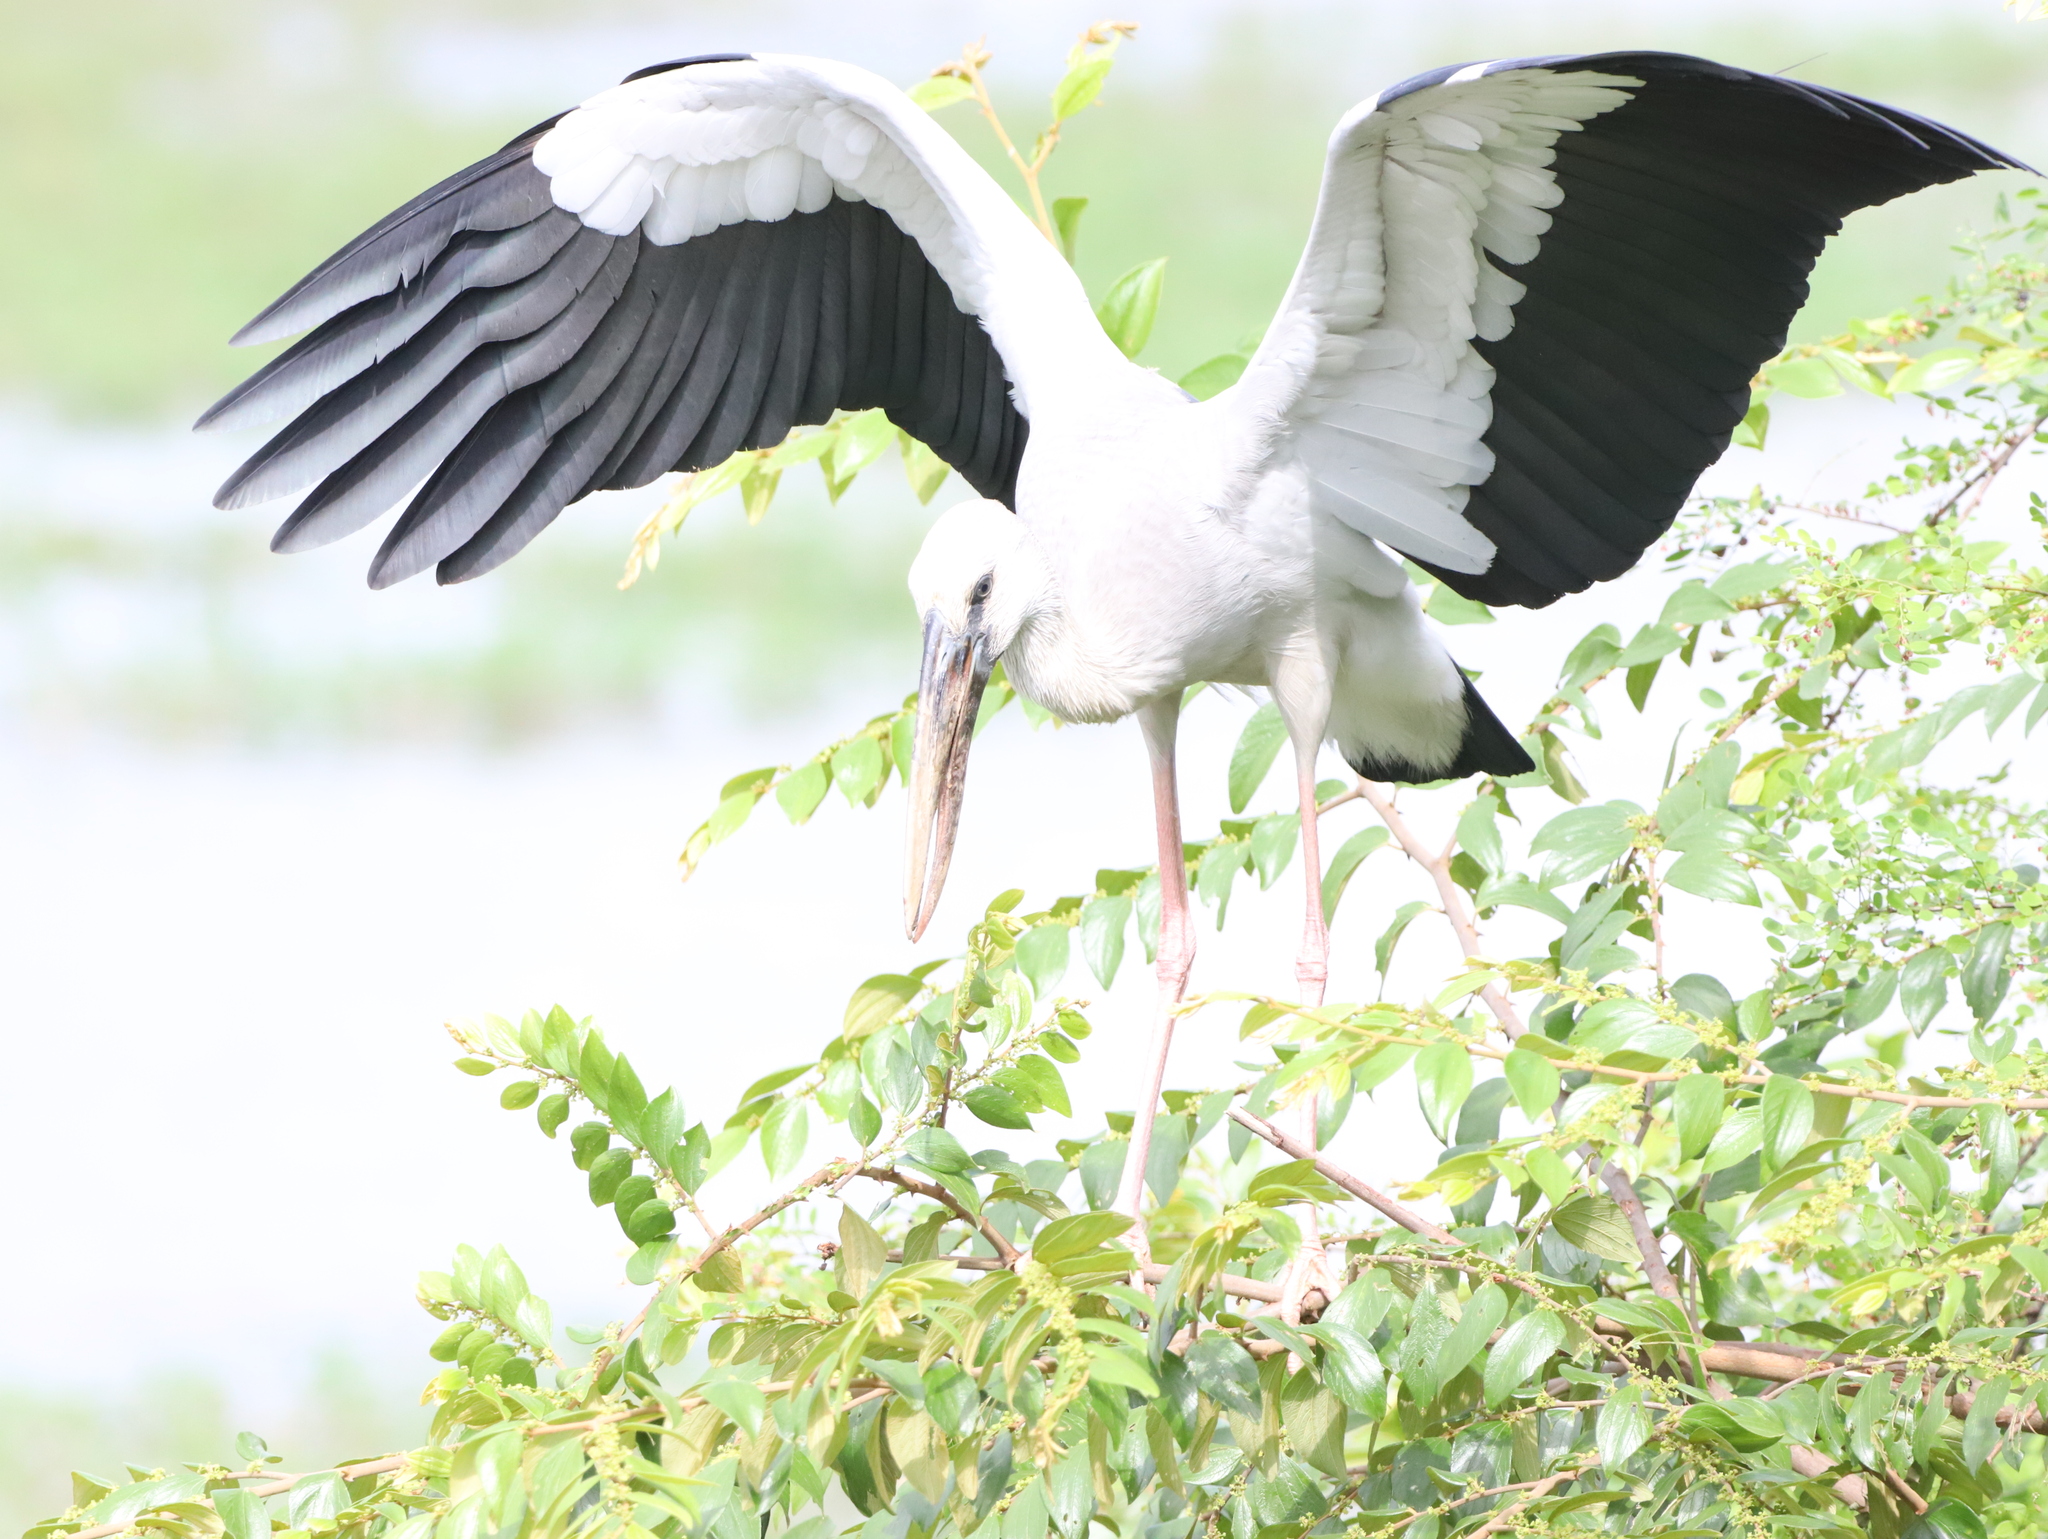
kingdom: Animalia
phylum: Chordata
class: Aves
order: Ciconiiformes
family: Ciconiidae
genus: Anastomus
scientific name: Anastomus oscitans
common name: Asian openbill
